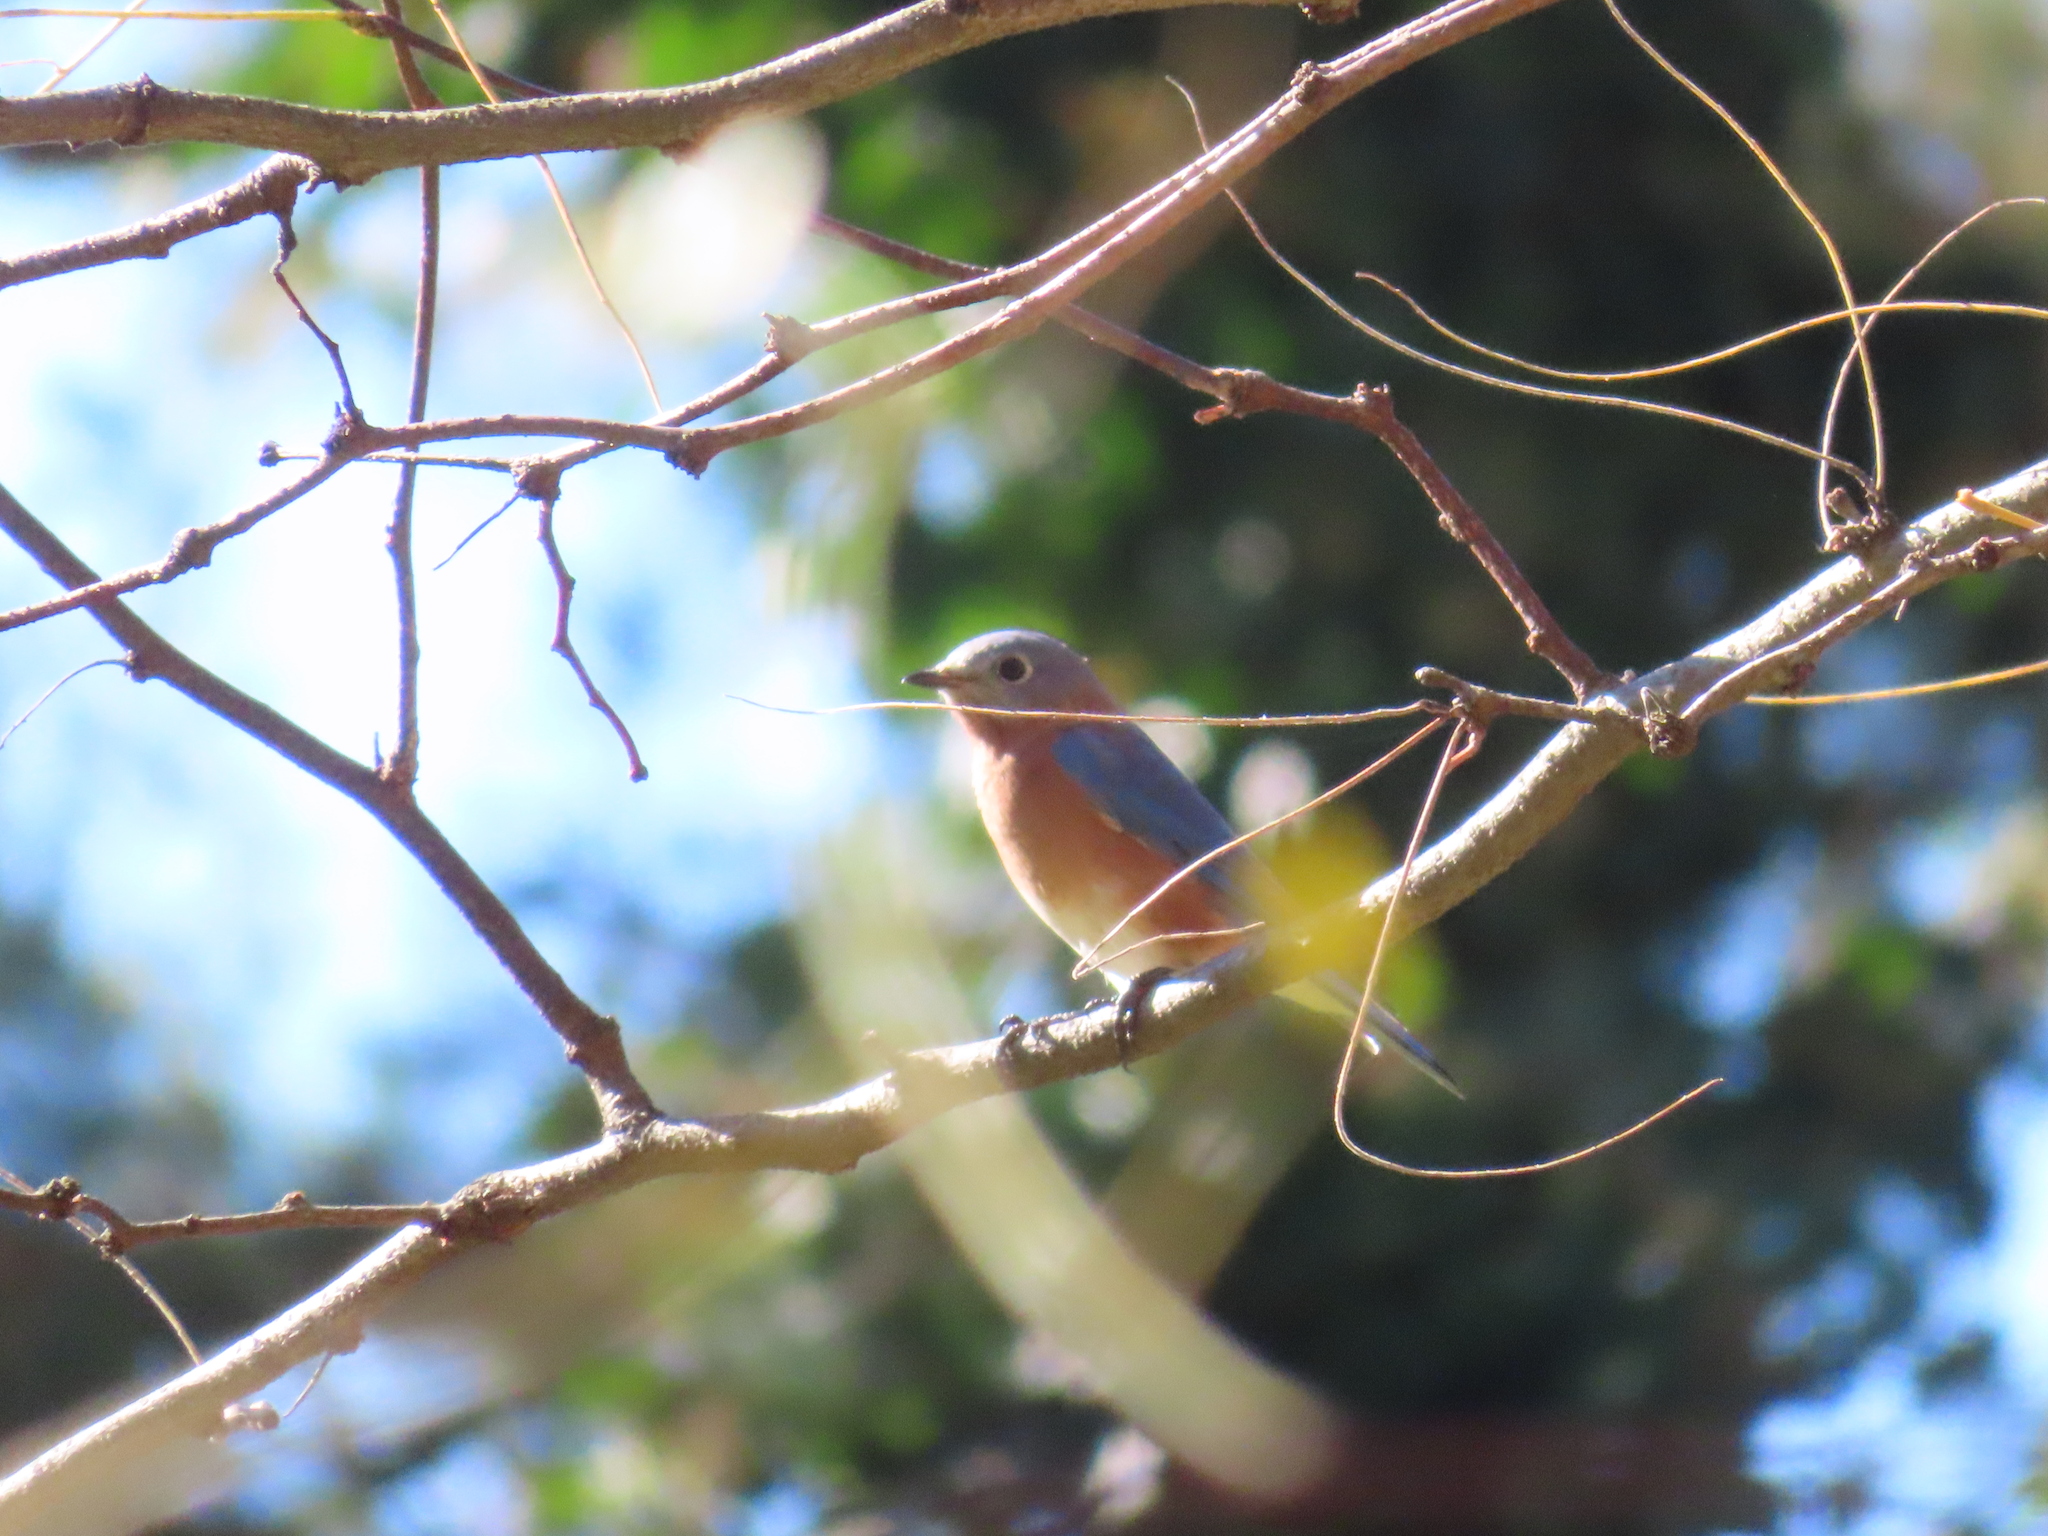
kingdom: Animalia
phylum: Chordata
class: Aves
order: Passeriformes
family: Turdidae
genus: Sialia
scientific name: Sialia sialis
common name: Eastern bluebird
